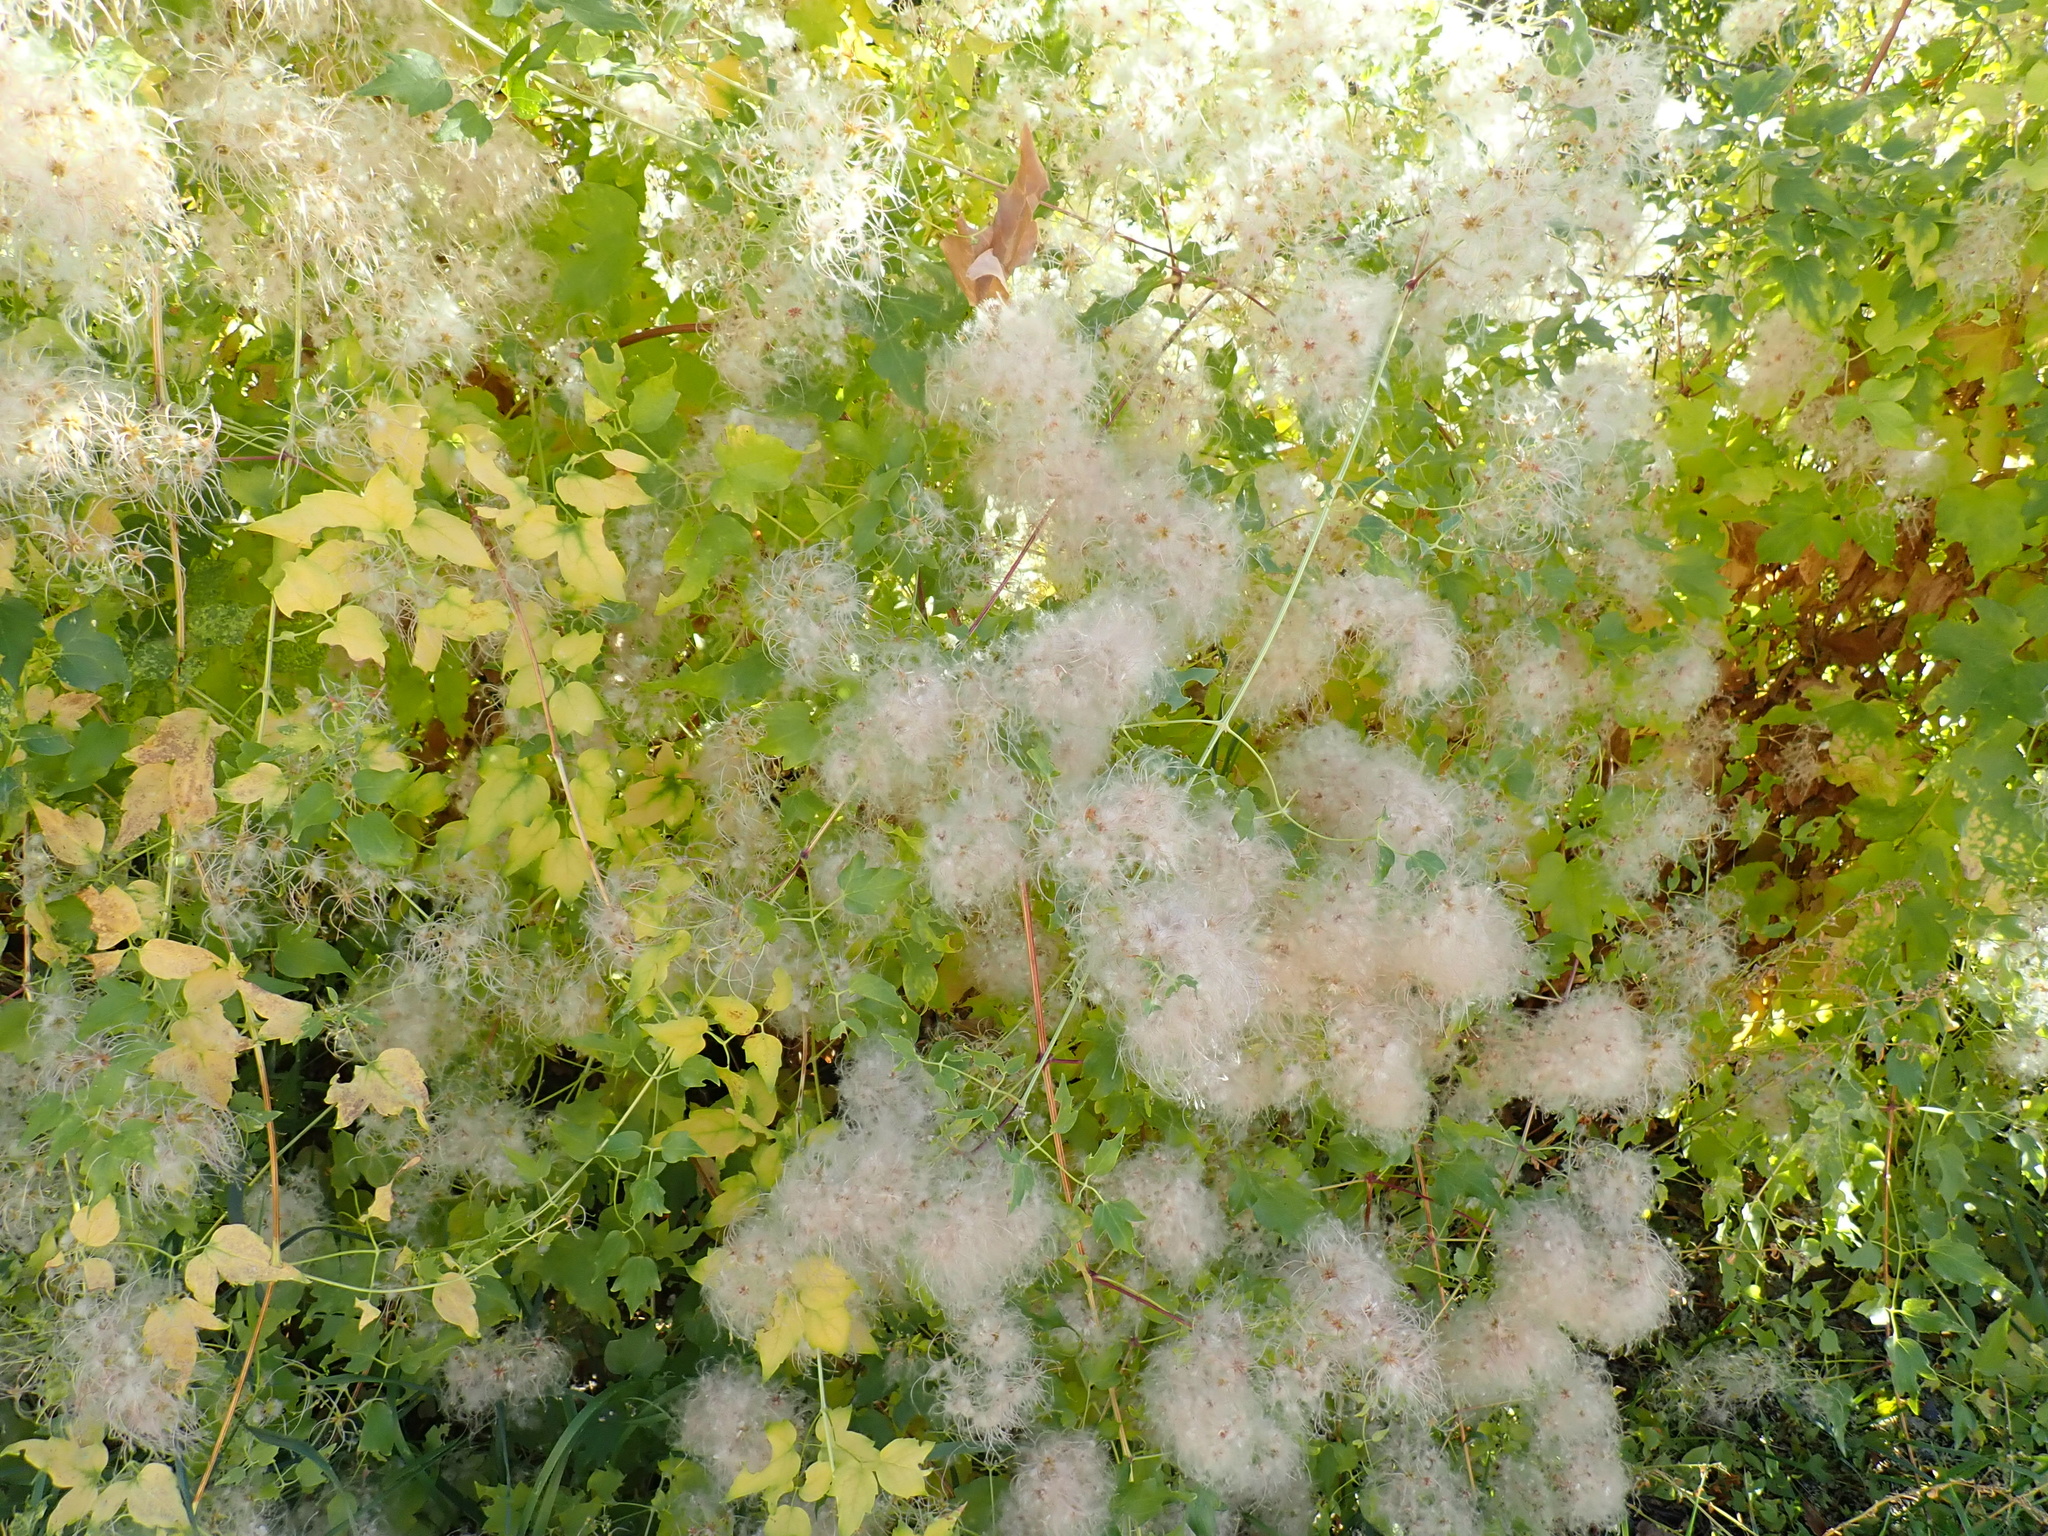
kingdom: Plantae
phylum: Tracheophyta
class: Magnoliopsida
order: Ranunculales
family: Ranunculaceae
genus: Clematis
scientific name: Clematis ligusticifolia
